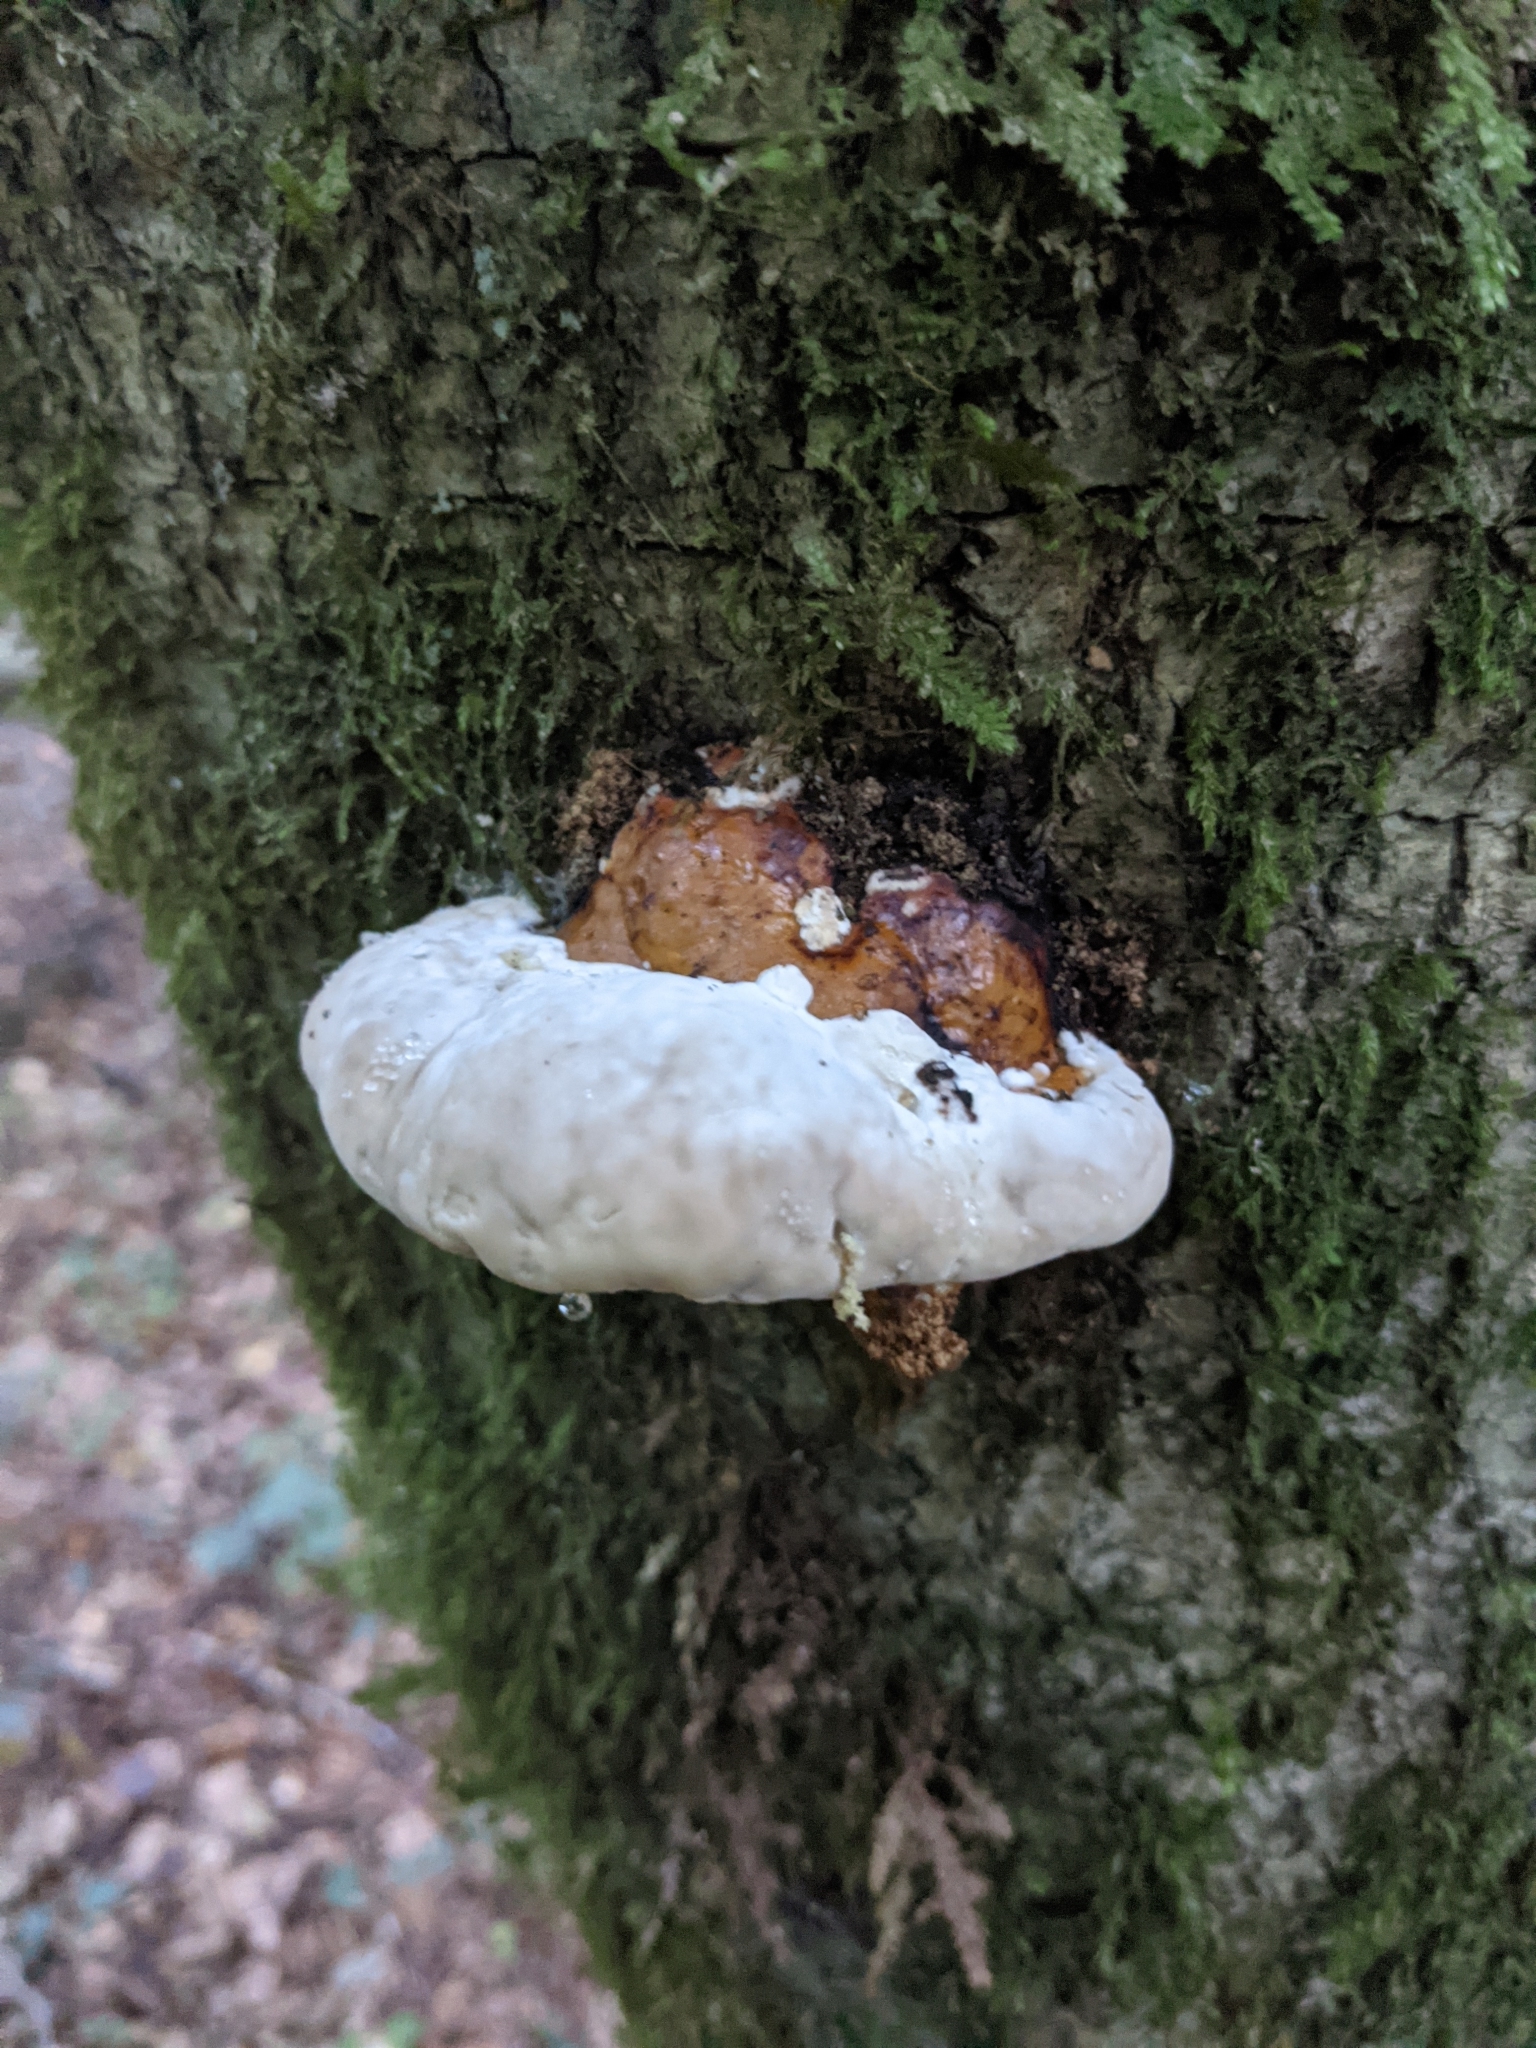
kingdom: Fungi
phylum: Basidiomycota
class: Agaricomycetes
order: Polyporales
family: Fomitopsidaceae
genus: Fomitopsis
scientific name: Fomitopsis pinicola
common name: Red-belted bracket
